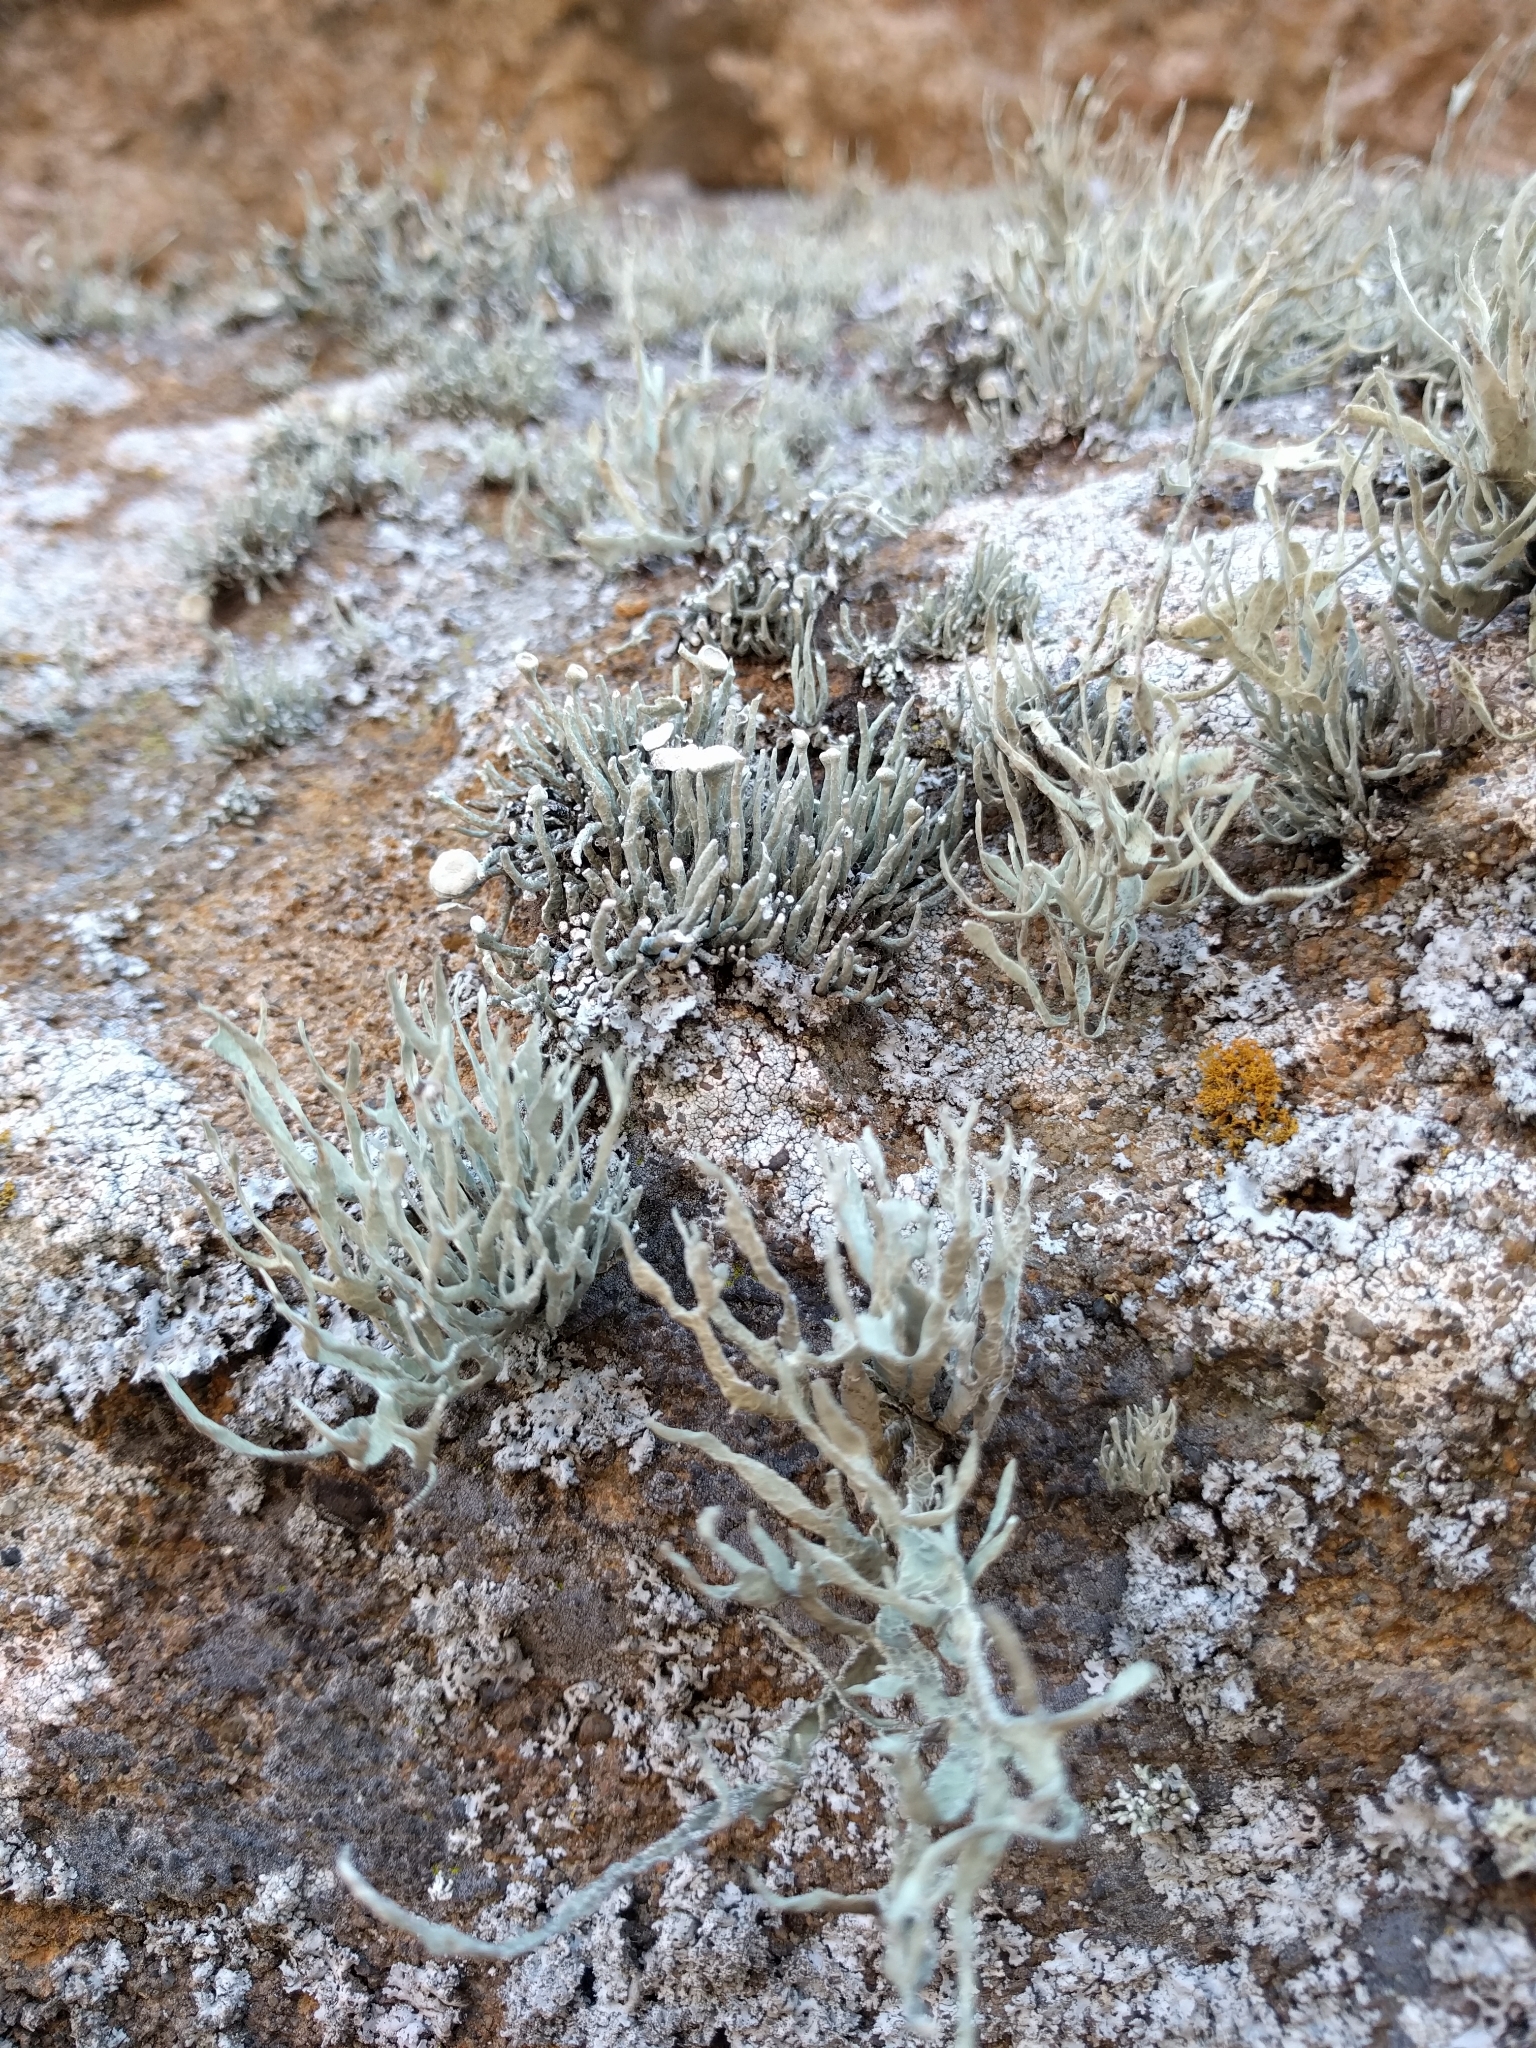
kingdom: Fungi
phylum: Ascomycota
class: Lecanoromycetes
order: Lecanorales
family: Ramalinaceae
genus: Niebla
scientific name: Niebla combeoides
